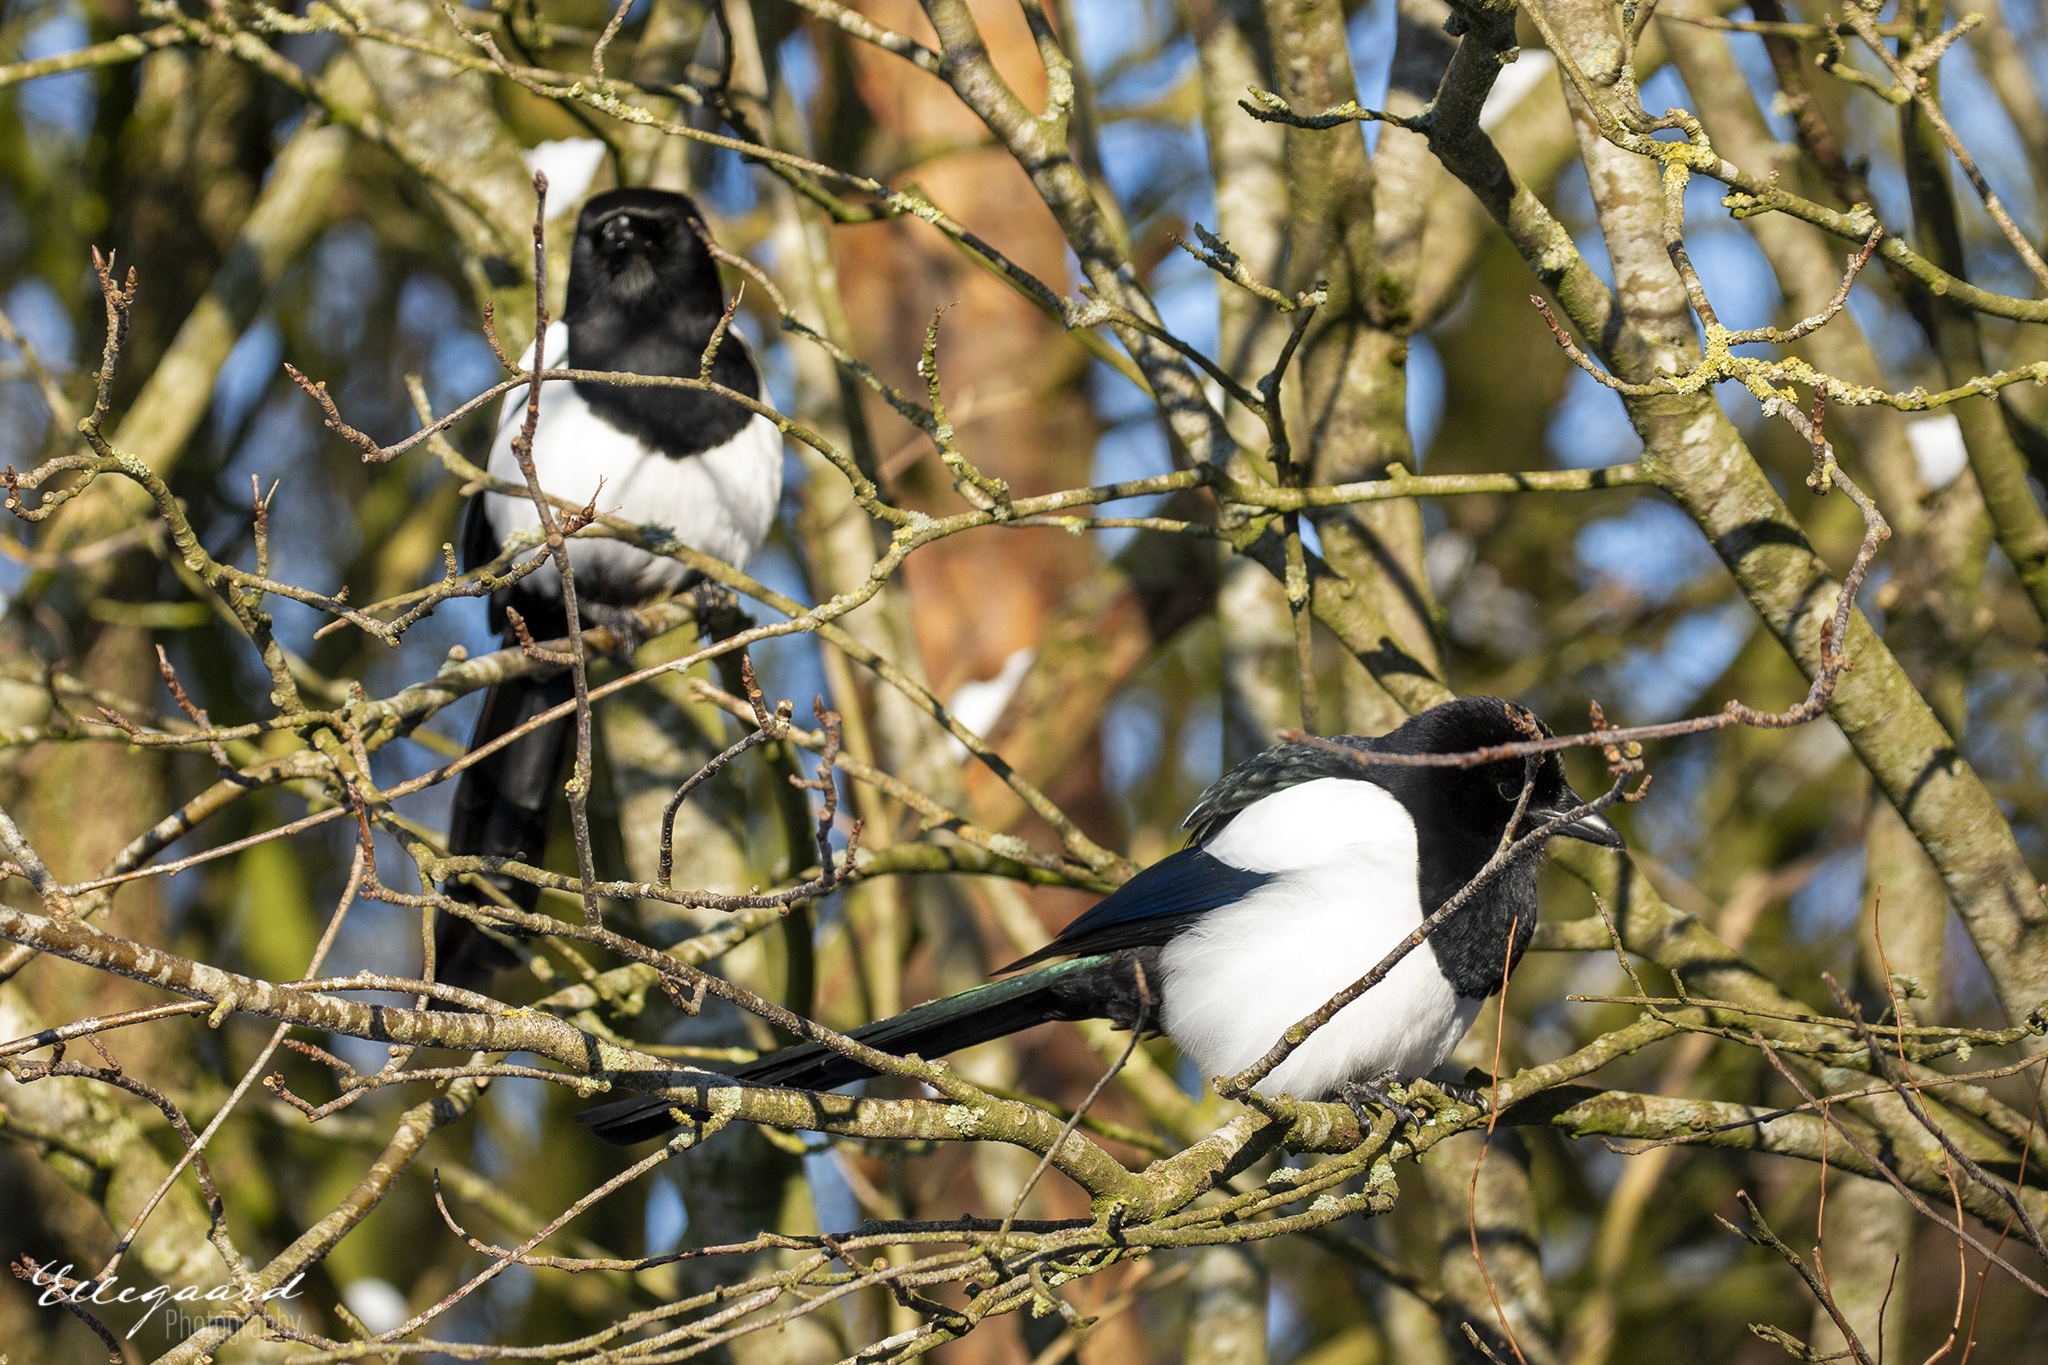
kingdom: Animalia
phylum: Chordata
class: Aves
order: Passeriformes
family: Corvidae
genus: Pica
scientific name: Pica pica
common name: Eurasian magpie
